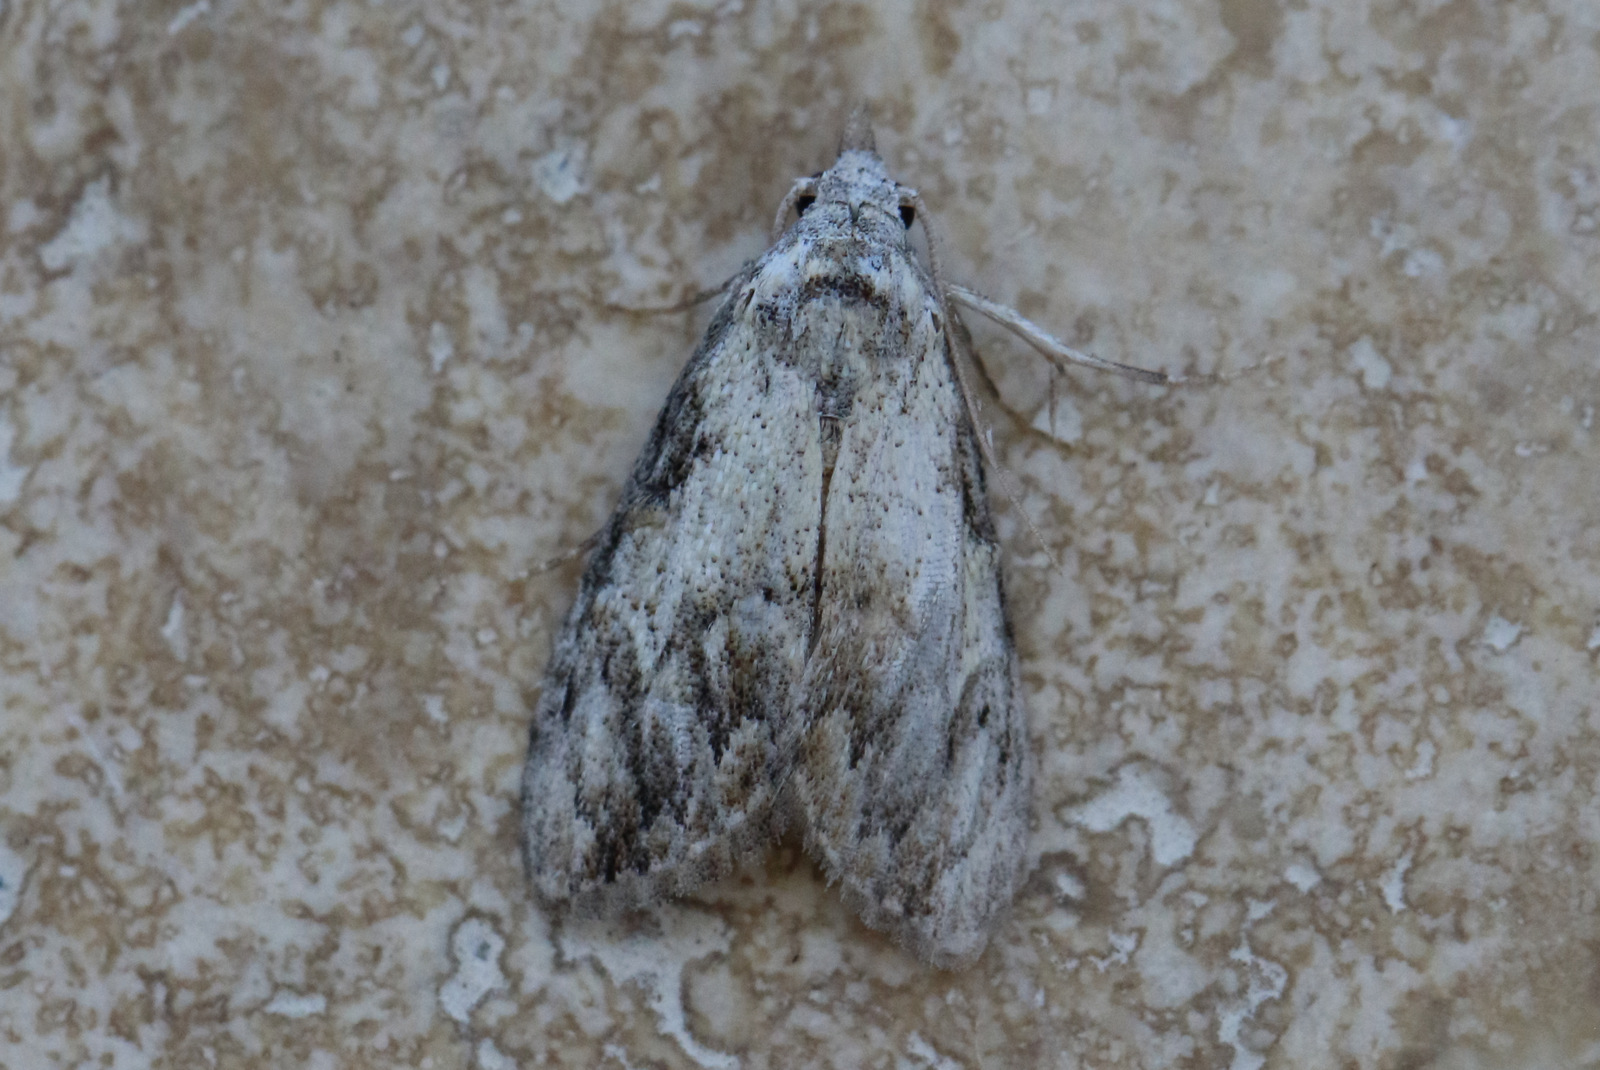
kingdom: Animalia
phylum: Arthropoda
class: Insecta
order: Lepidoptera
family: Nolidae
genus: Nola
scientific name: Nola pleurochorda
